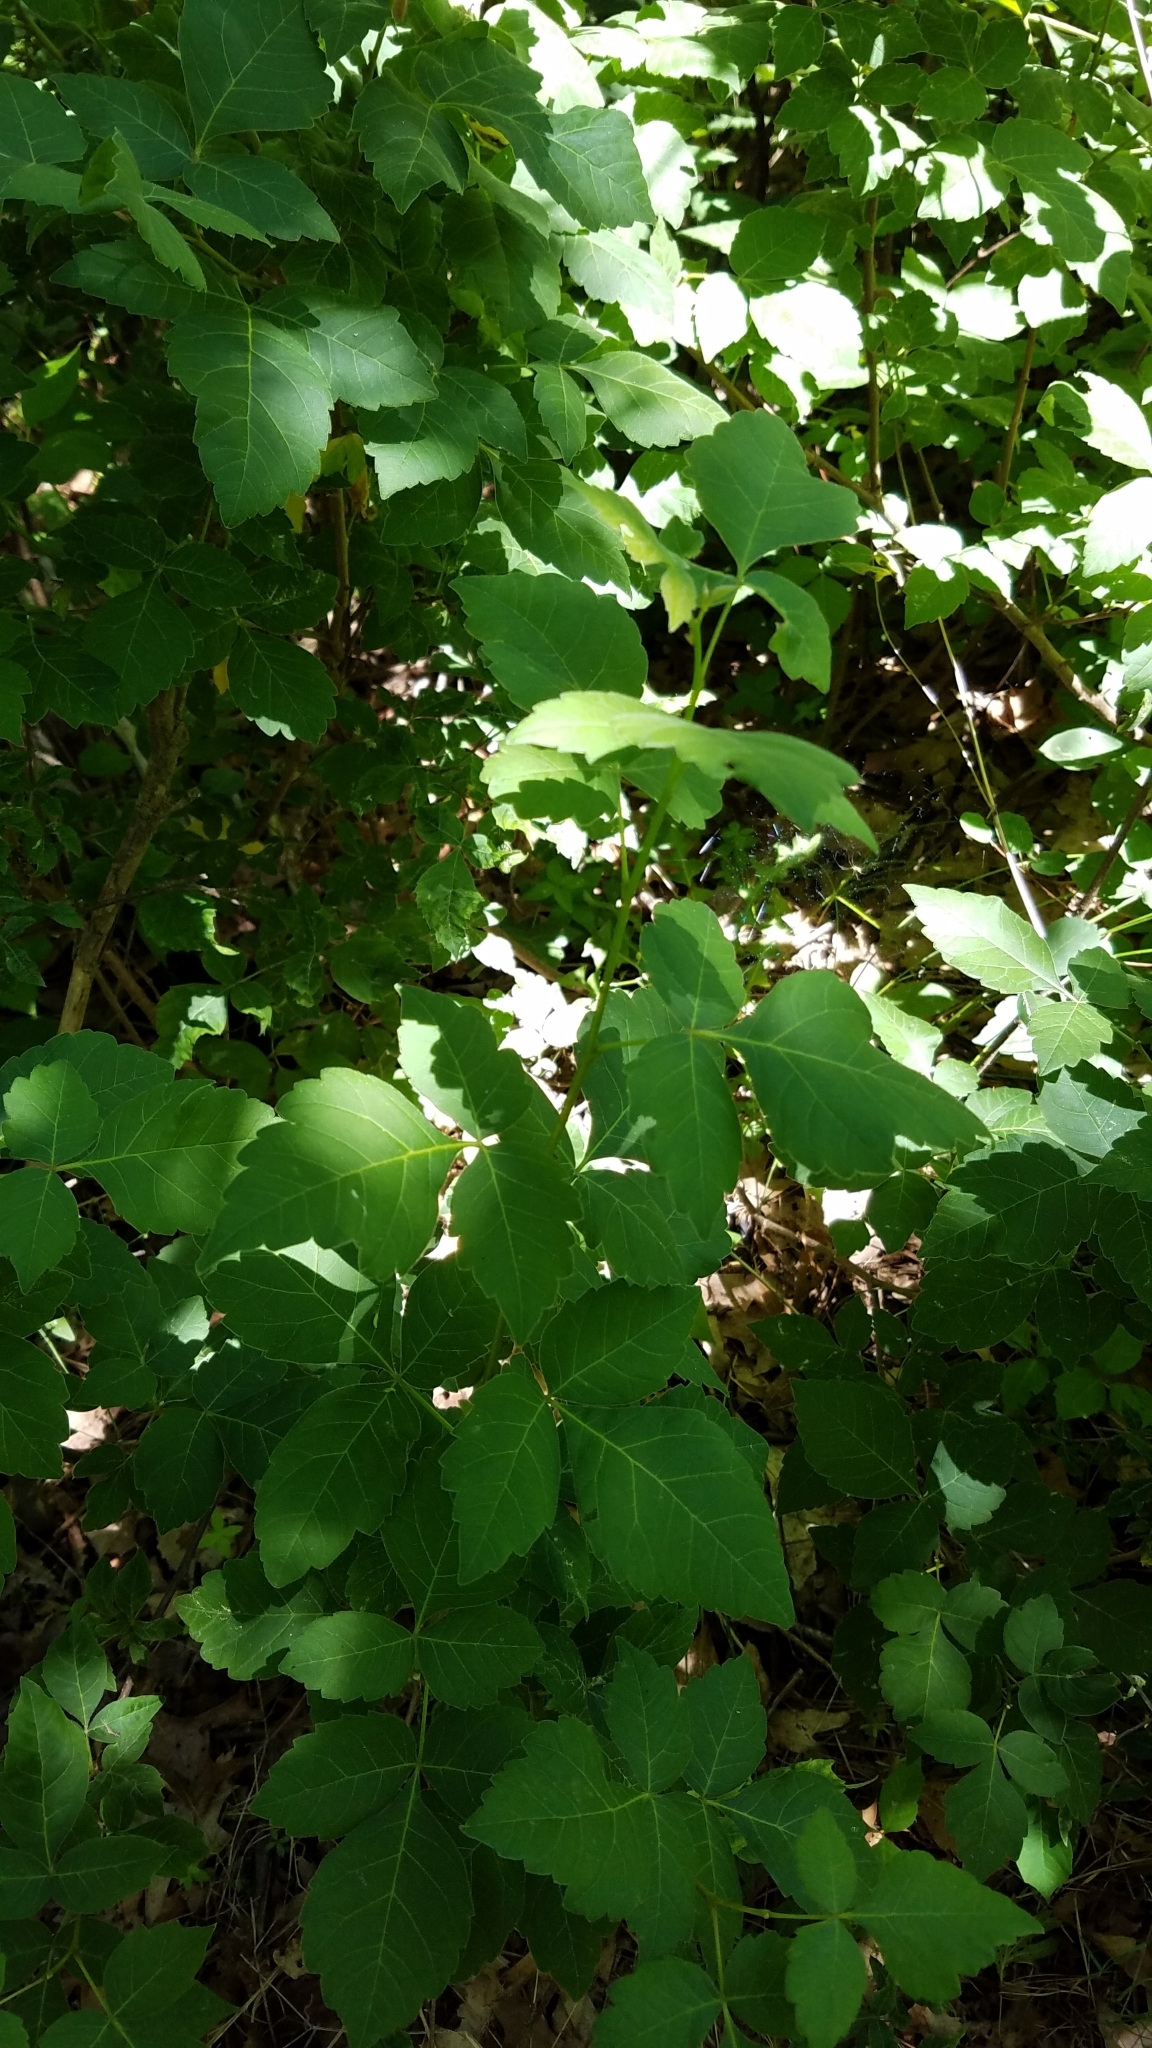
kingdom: Plantae
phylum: Tracheophyta
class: Magnoliopsida
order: Sapindales
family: Anacardiaceae
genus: Rhus
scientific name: Rhus aromatica
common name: Aromatic sumac
